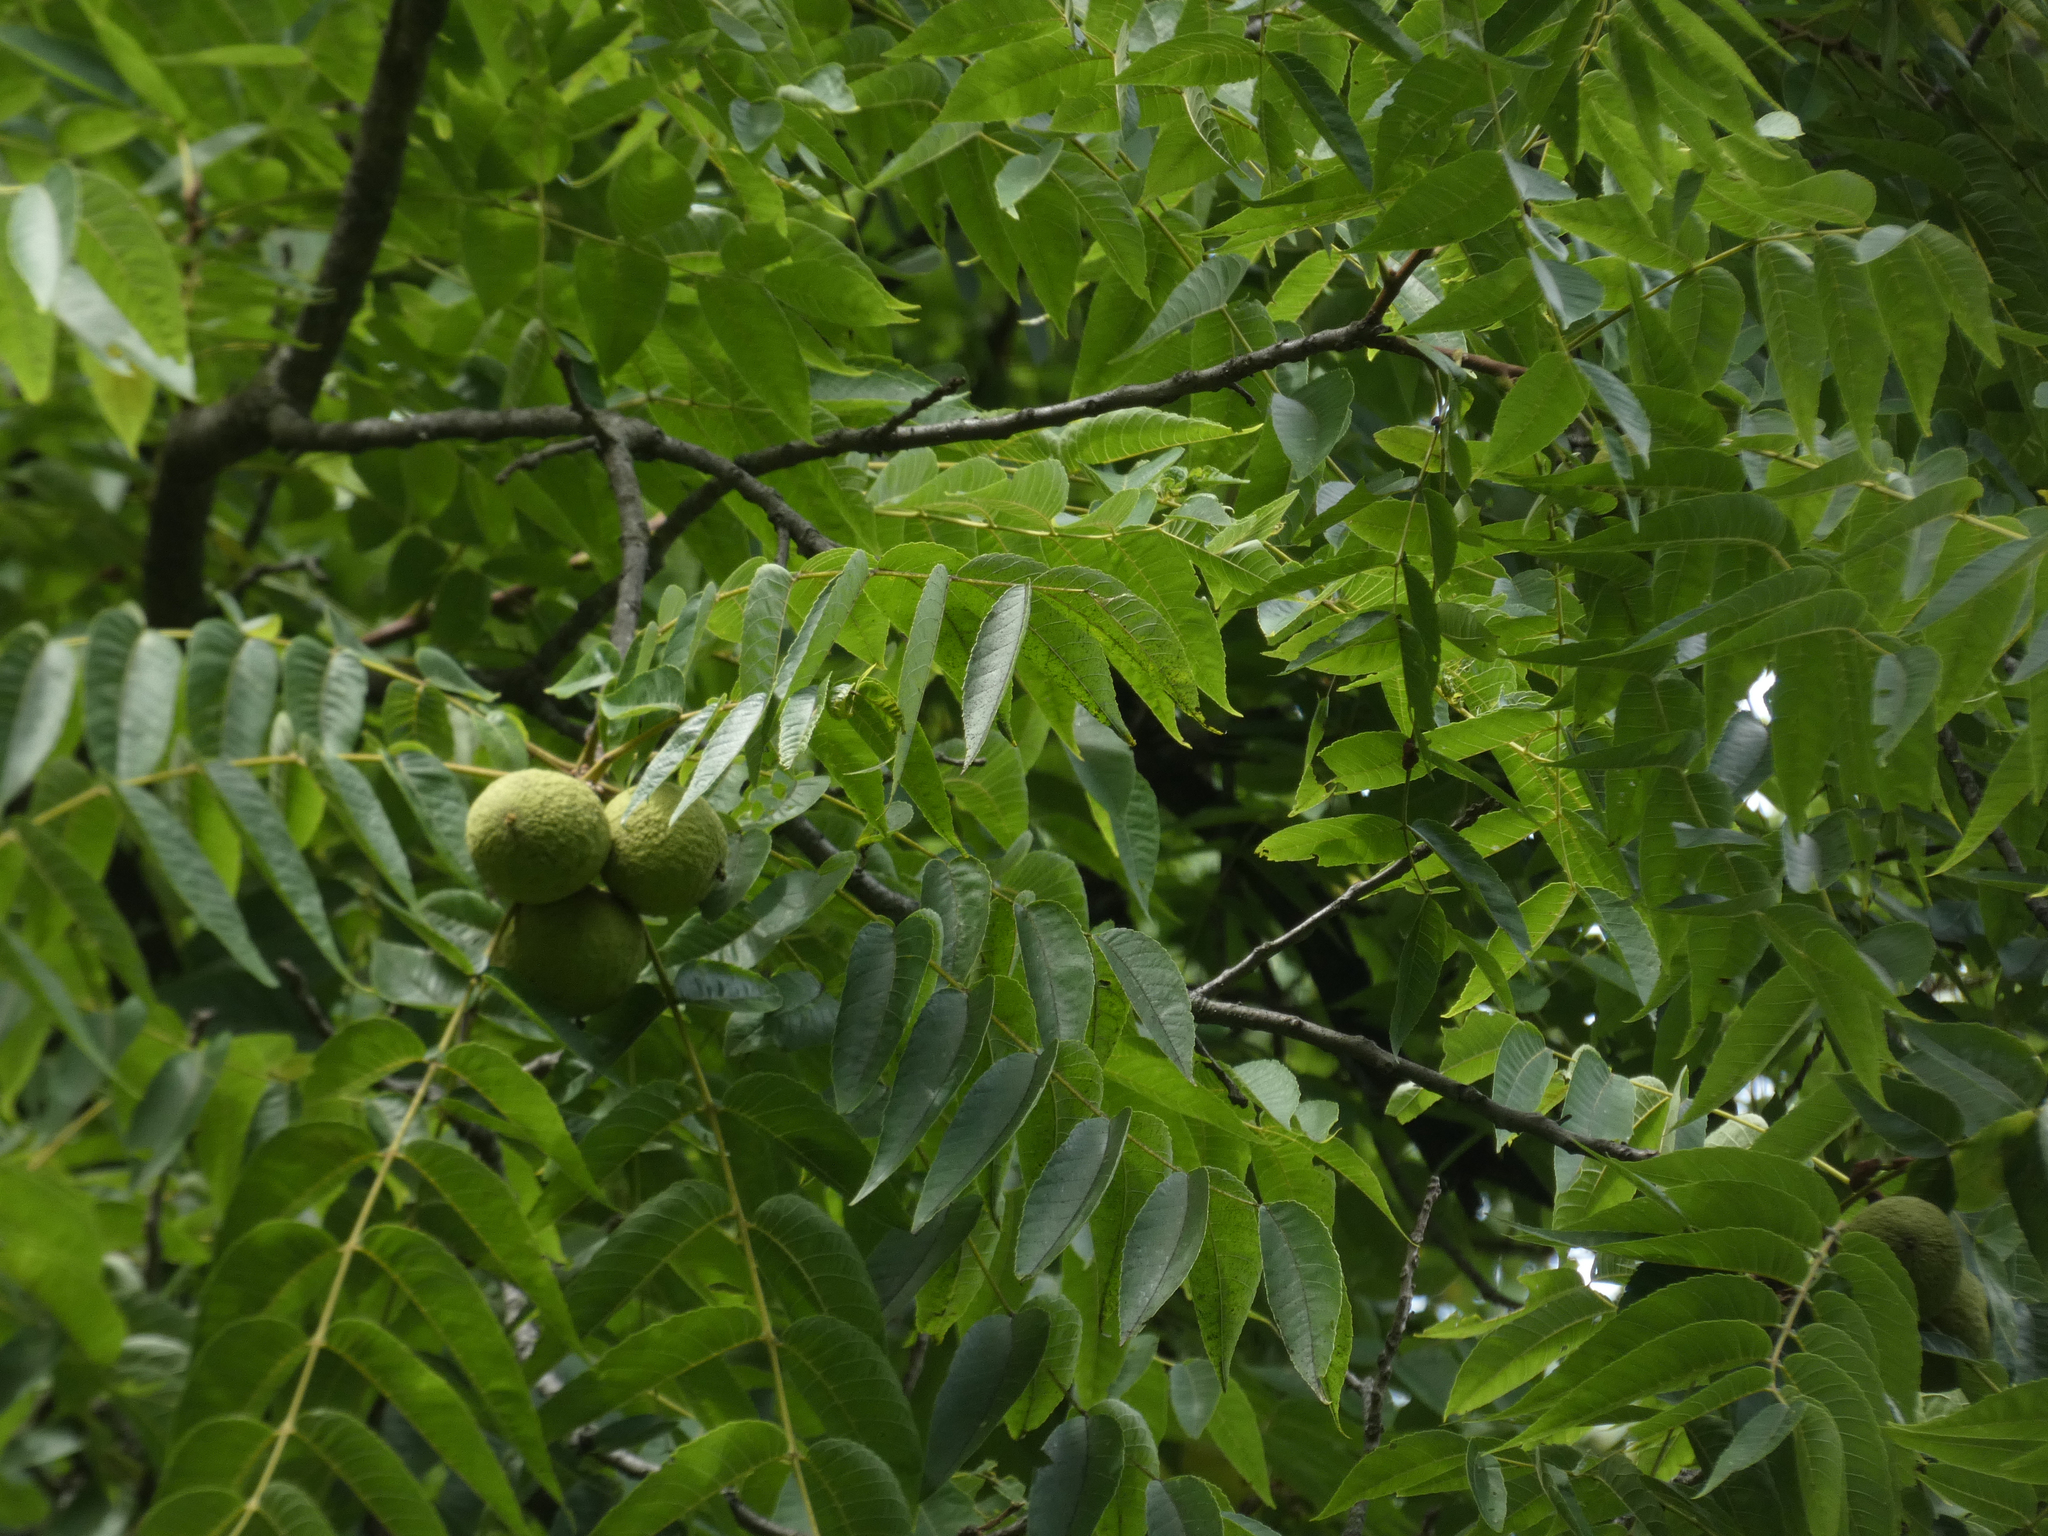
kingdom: Plantae
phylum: Tracheophyta
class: Magnoliopsida
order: Fagales
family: Juglandaceae
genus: Juglans
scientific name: Juglans nigra
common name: Black walnut
